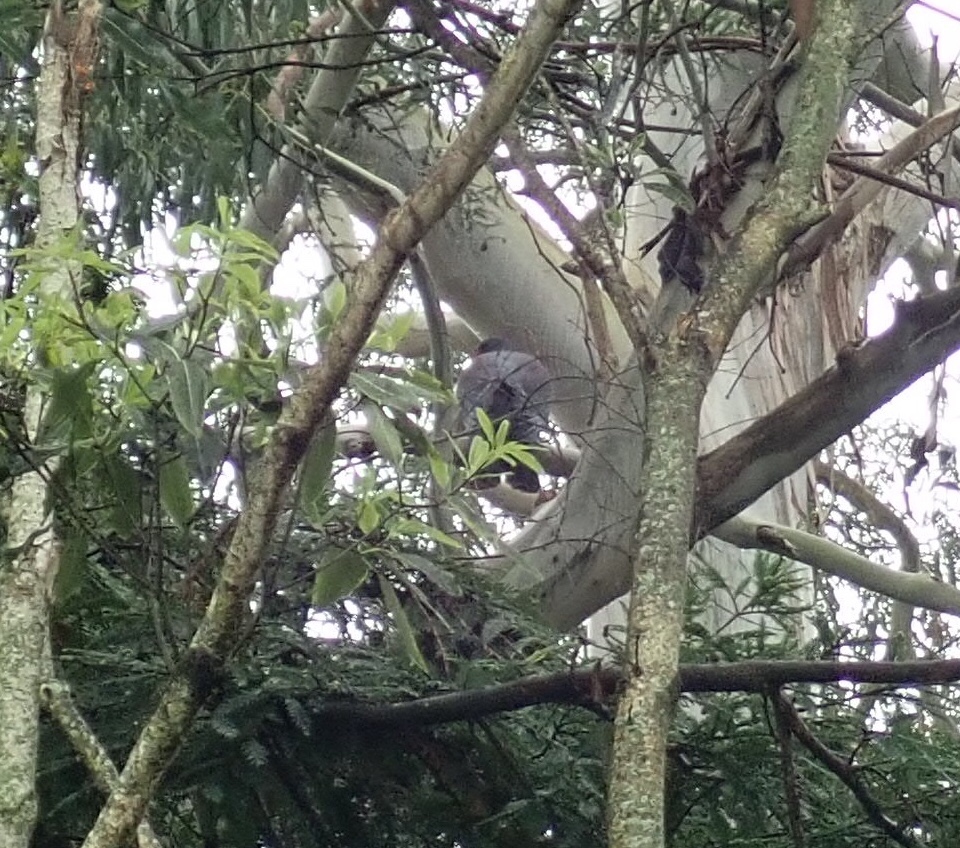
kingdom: Animalia
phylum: Chordata
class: Aves
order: Columbiformes
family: Columbidae
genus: Hemiphaga
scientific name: Hemiphaga novaeseelandiae
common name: New zealand pigeon
